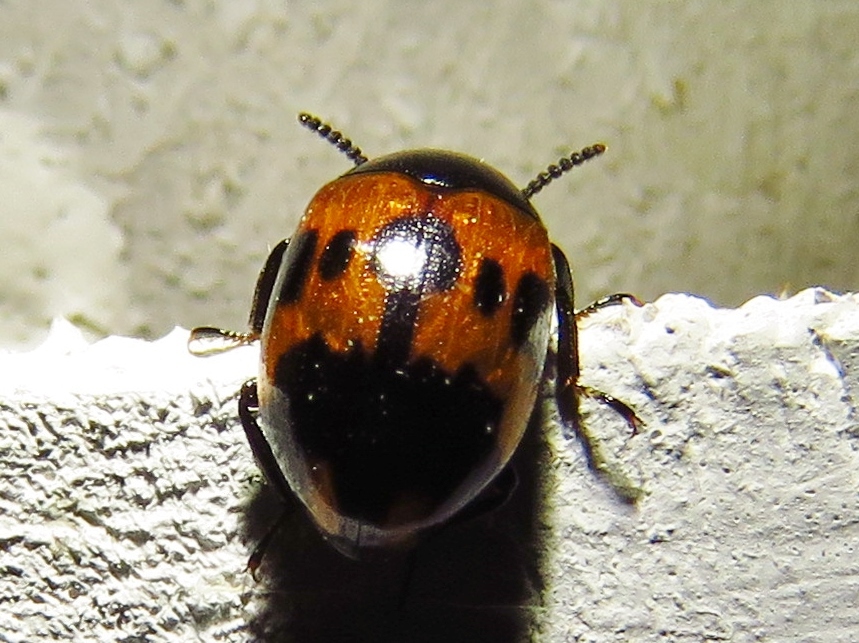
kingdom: Animalia
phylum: Arthropoda
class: Insecta
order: Coleoptera
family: Tenebrionidae
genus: Diaperis
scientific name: Diaperis nigronotata
